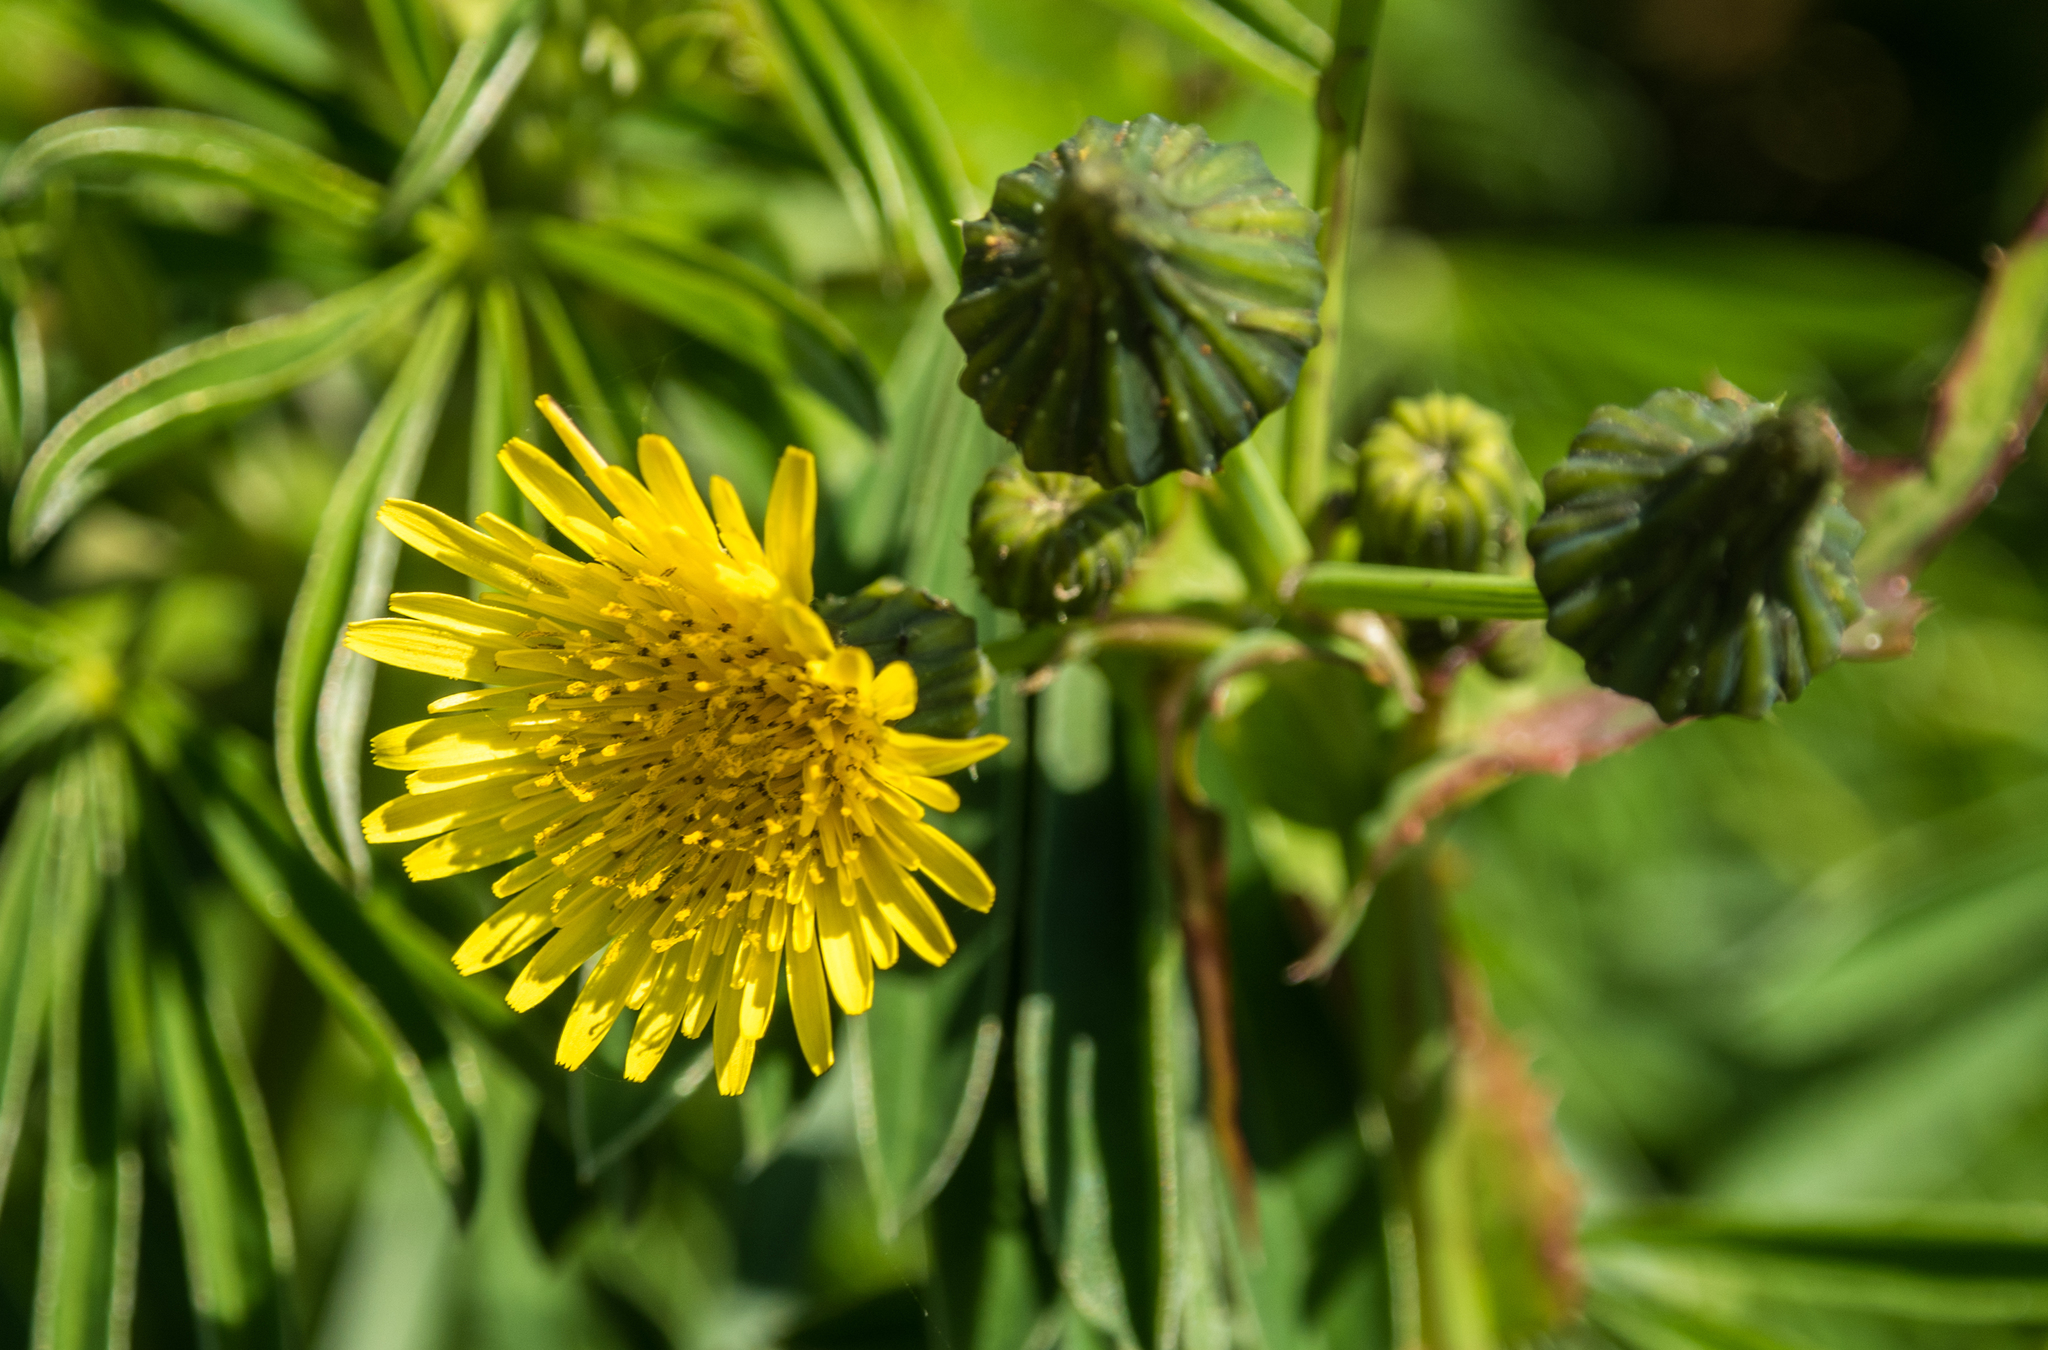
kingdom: Plantae
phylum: Tracheophyta
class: Magnoliopsida
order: Asterales
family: Asteraceae
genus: Sonchus
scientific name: Sonchus oleraceus
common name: Common sowthistle
